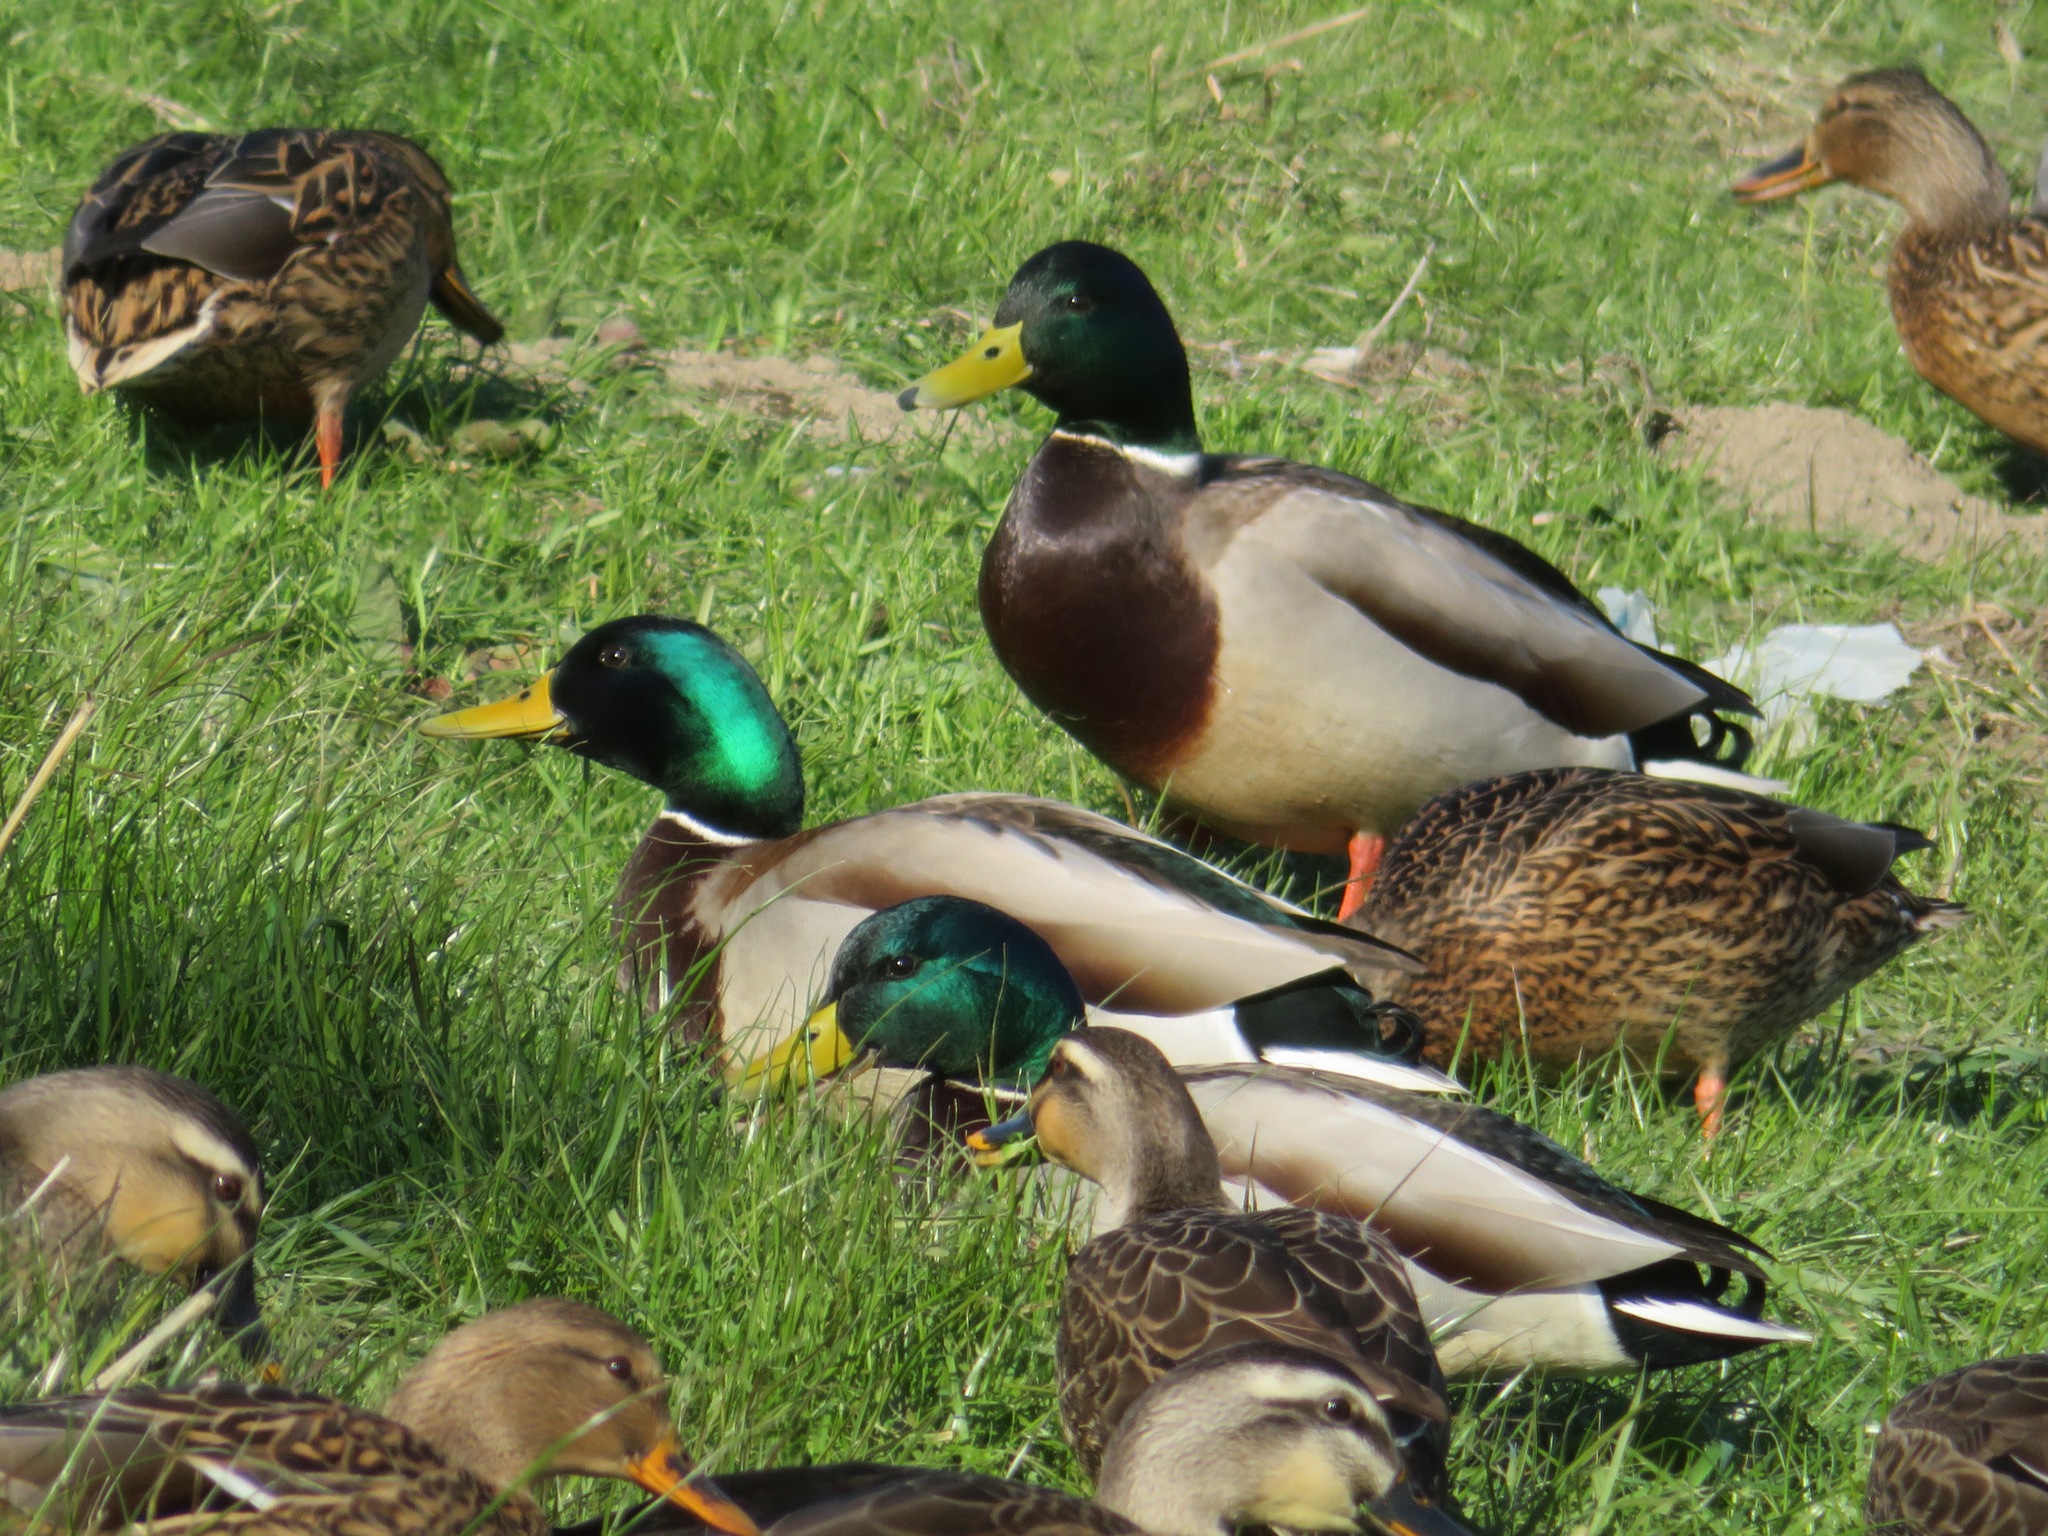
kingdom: Animalia
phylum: Chordata
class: Aves
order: Anseriformes
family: Anatidae
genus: Anas
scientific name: Anas platyrhynchos
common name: Mallard
